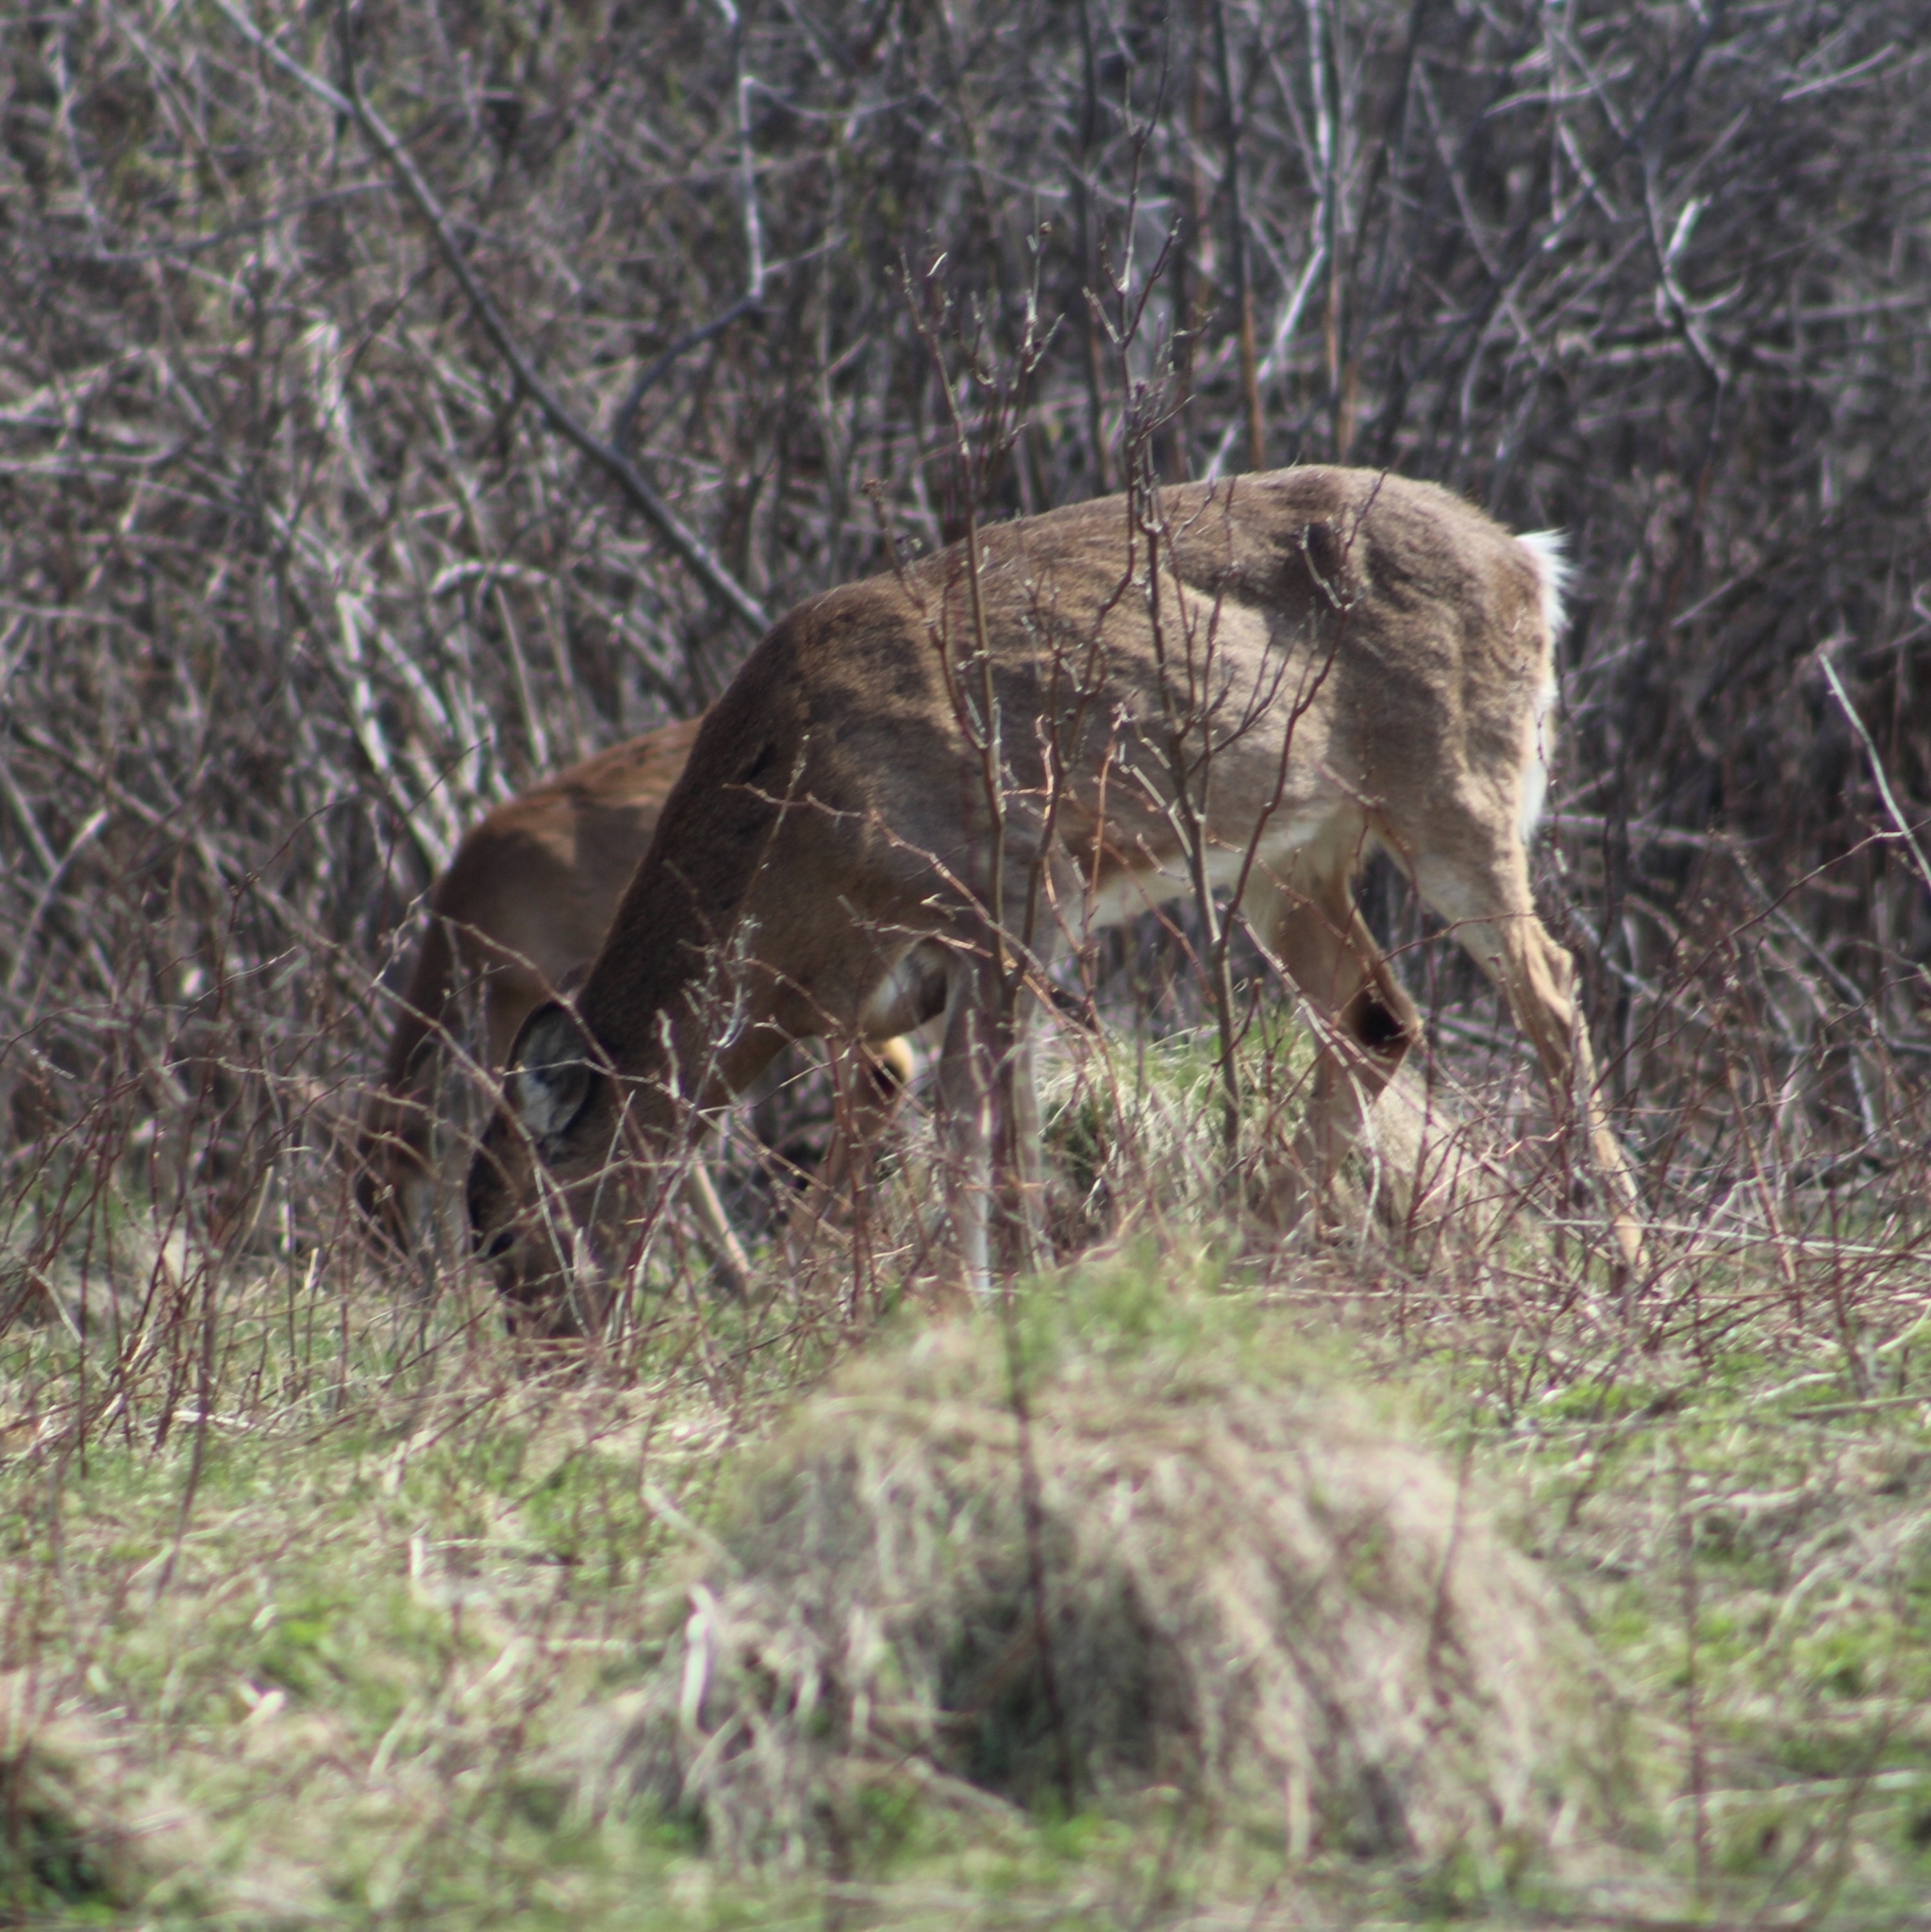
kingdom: Animalia
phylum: Chordata
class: Mammalia
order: Artiodactyla
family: Cervidae
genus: Odocoileus
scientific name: Odocoileus virginianus
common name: White-tailed deer
